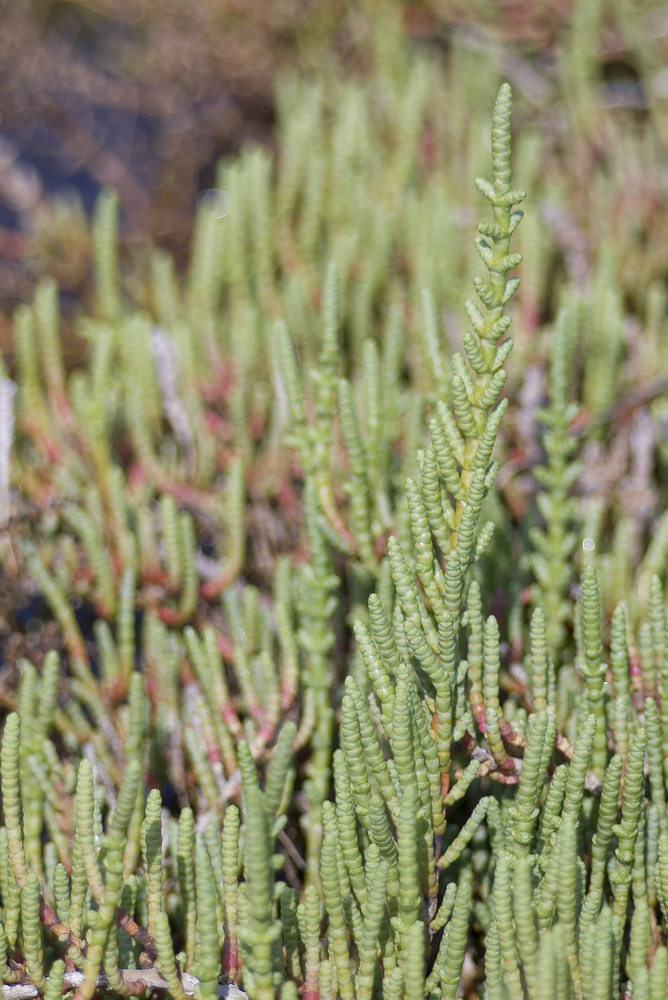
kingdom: Plantae
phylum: Tracheophyta
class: Magnoliopsida
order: Caryophyllales
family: Amaranthaceae
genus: Salicornia
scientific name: Salicornia fruticosa
